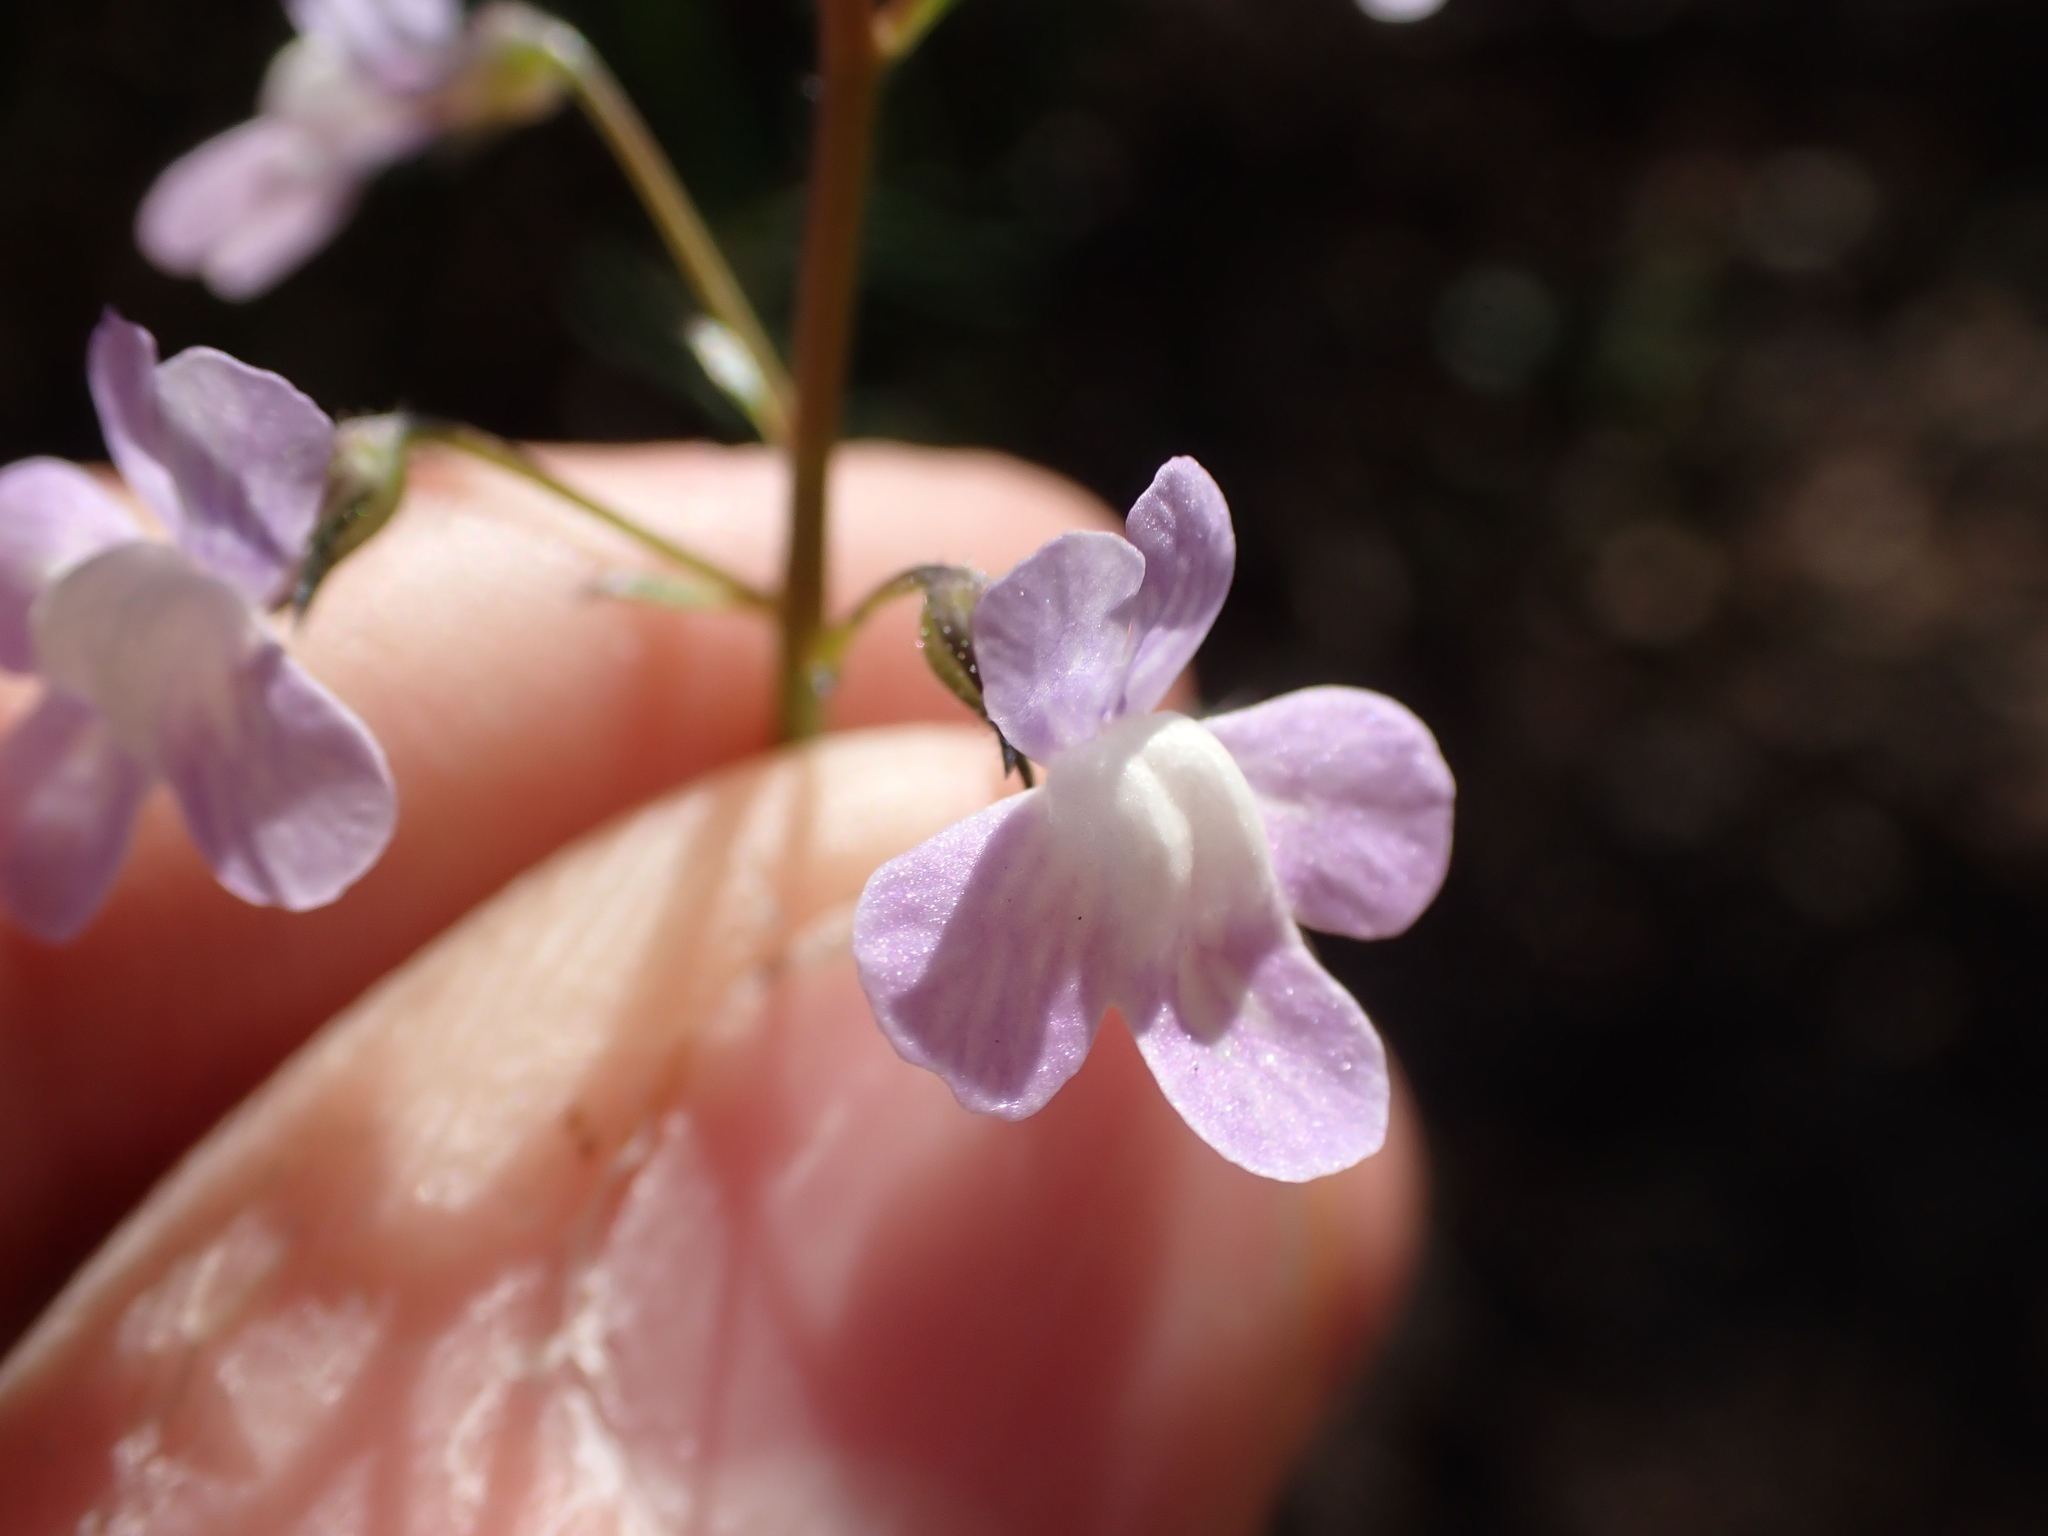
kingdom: Plantae
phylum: Tracheophyta
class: Magnoliopsida
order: Lamiales
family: Plantaginaceae
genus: Nuttallanthus
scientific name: Nuttallanthus floridanus
